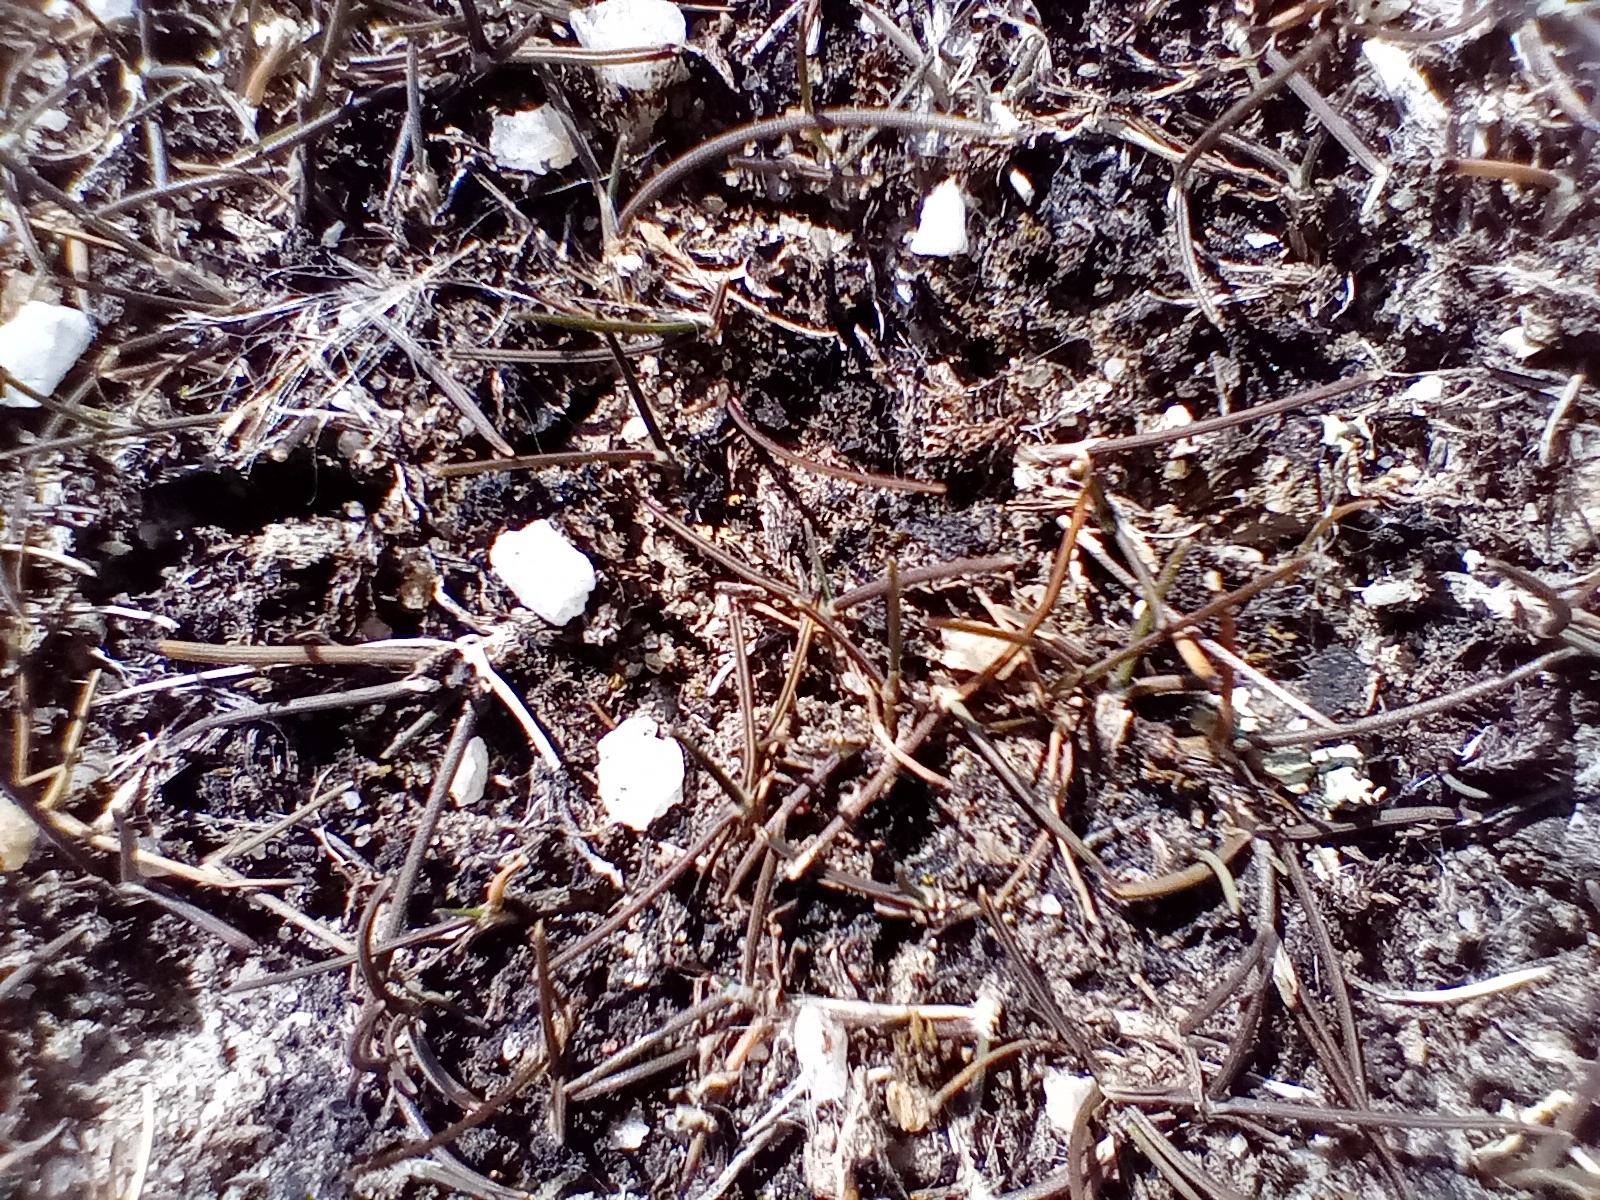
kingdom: Plantae
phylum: Tracheophyta
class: Liliopsida
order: Poales
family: Poaceae
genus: Puccinellia
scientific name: Puccinellia raroflorens
